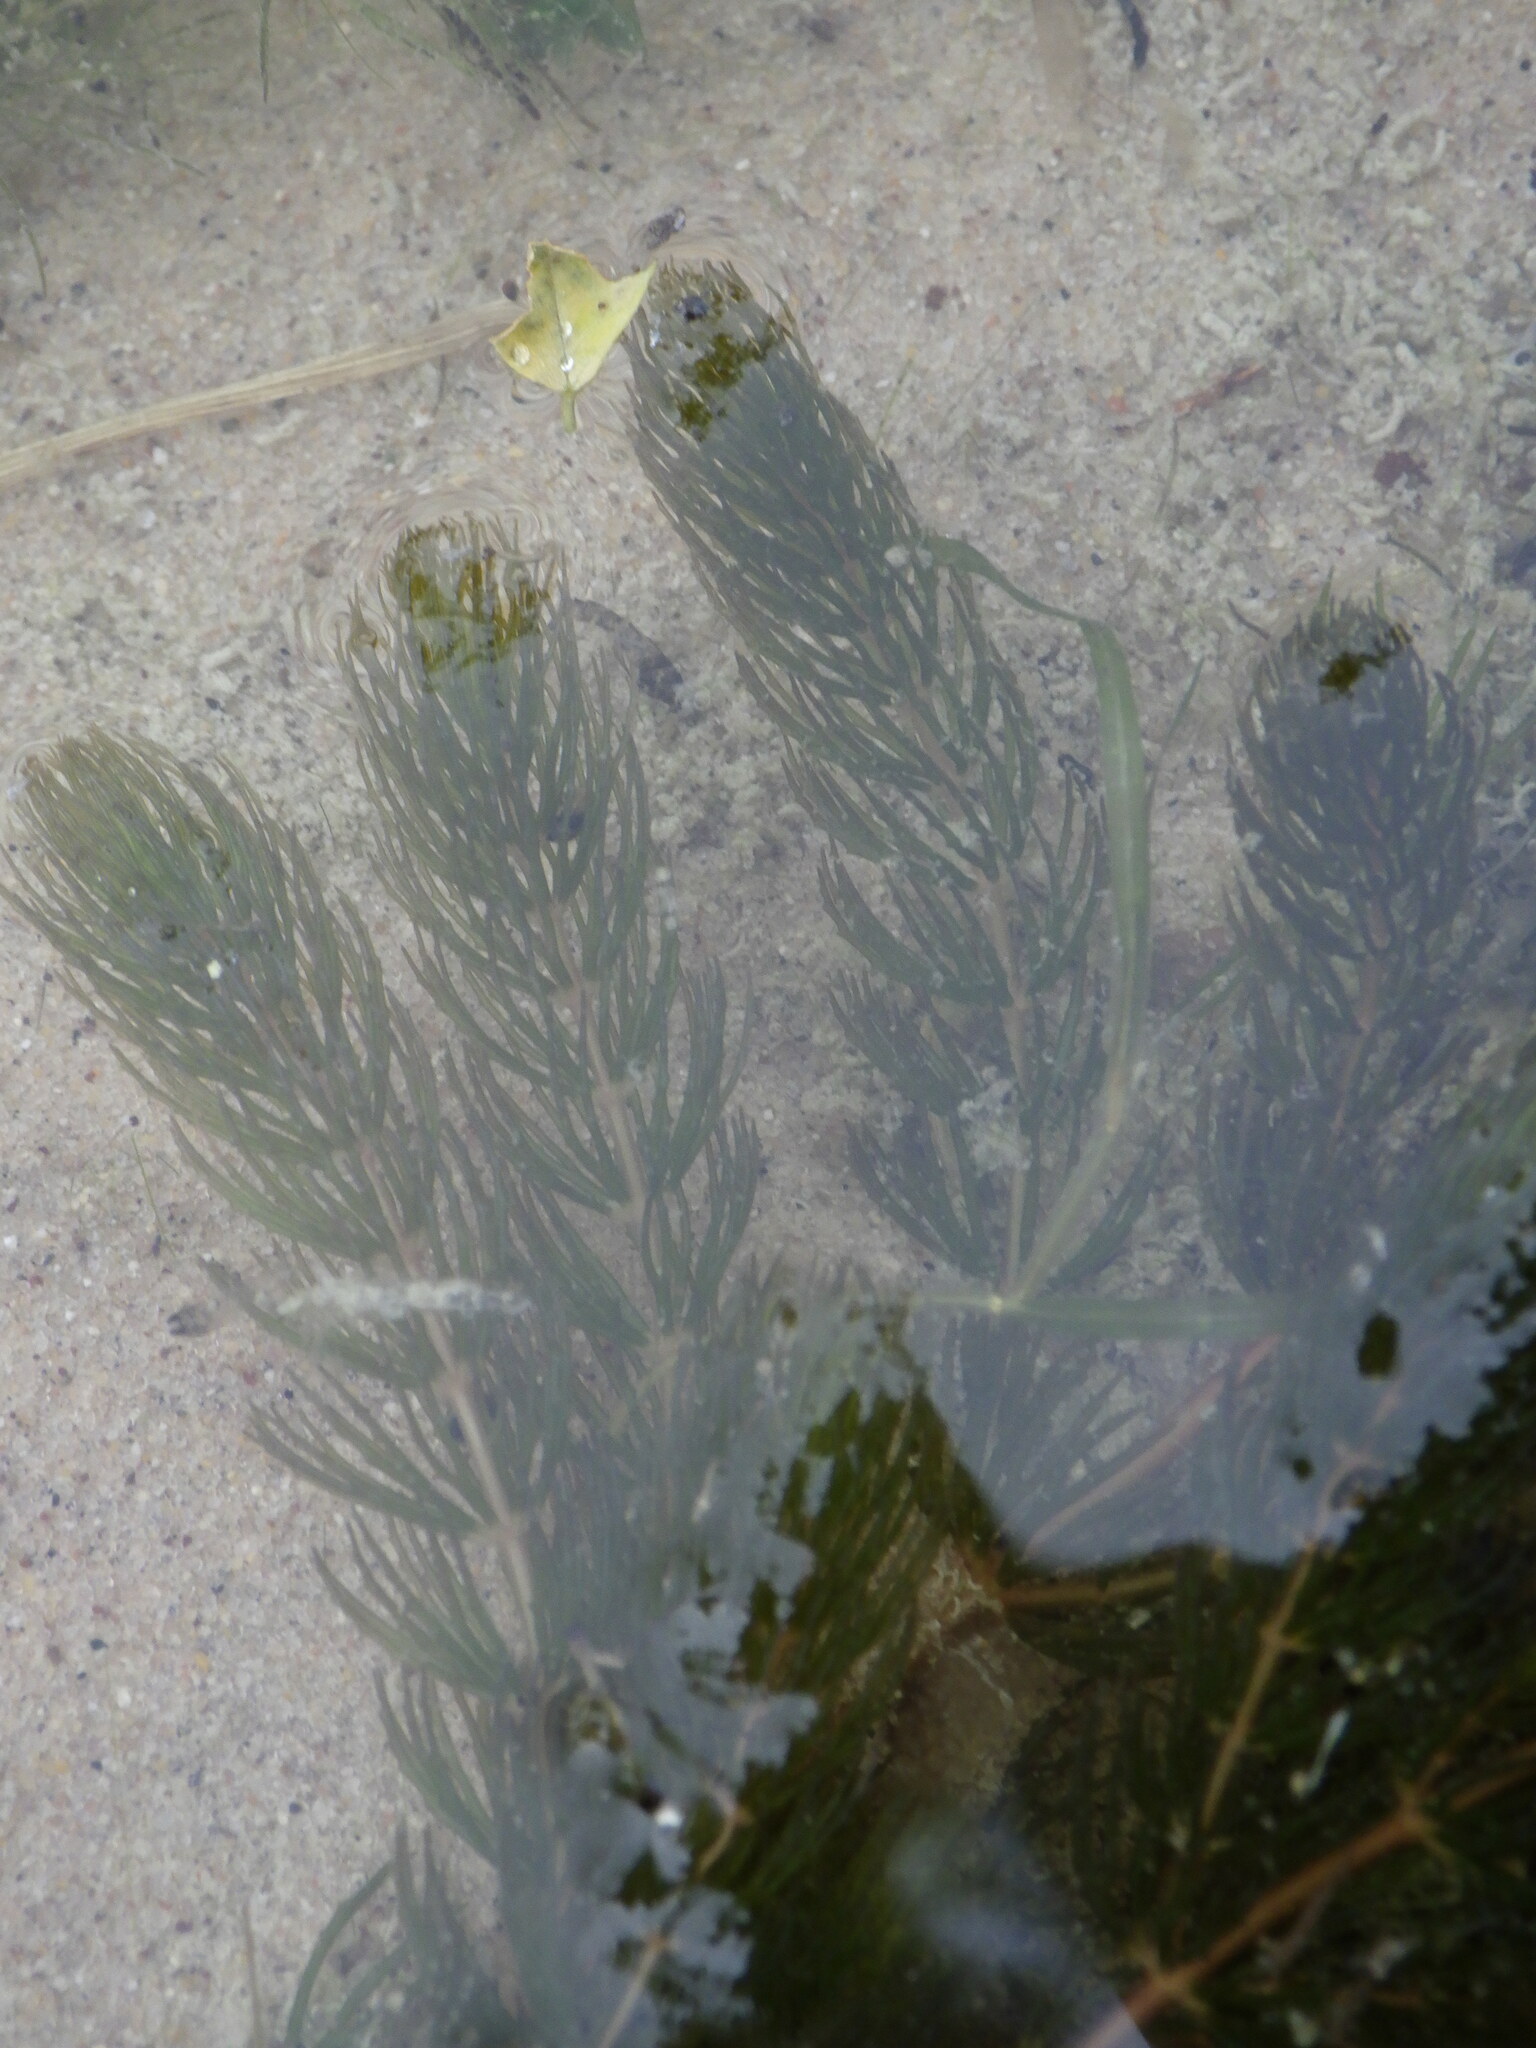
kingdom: Plantae
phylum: Tracheophyta
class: Magnoliopsida
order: Ceratophyllales
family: Ceratophyllaceae
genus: Ceratophyllum
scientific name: Ceratophyllum demersum
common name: Rigid hornwort
